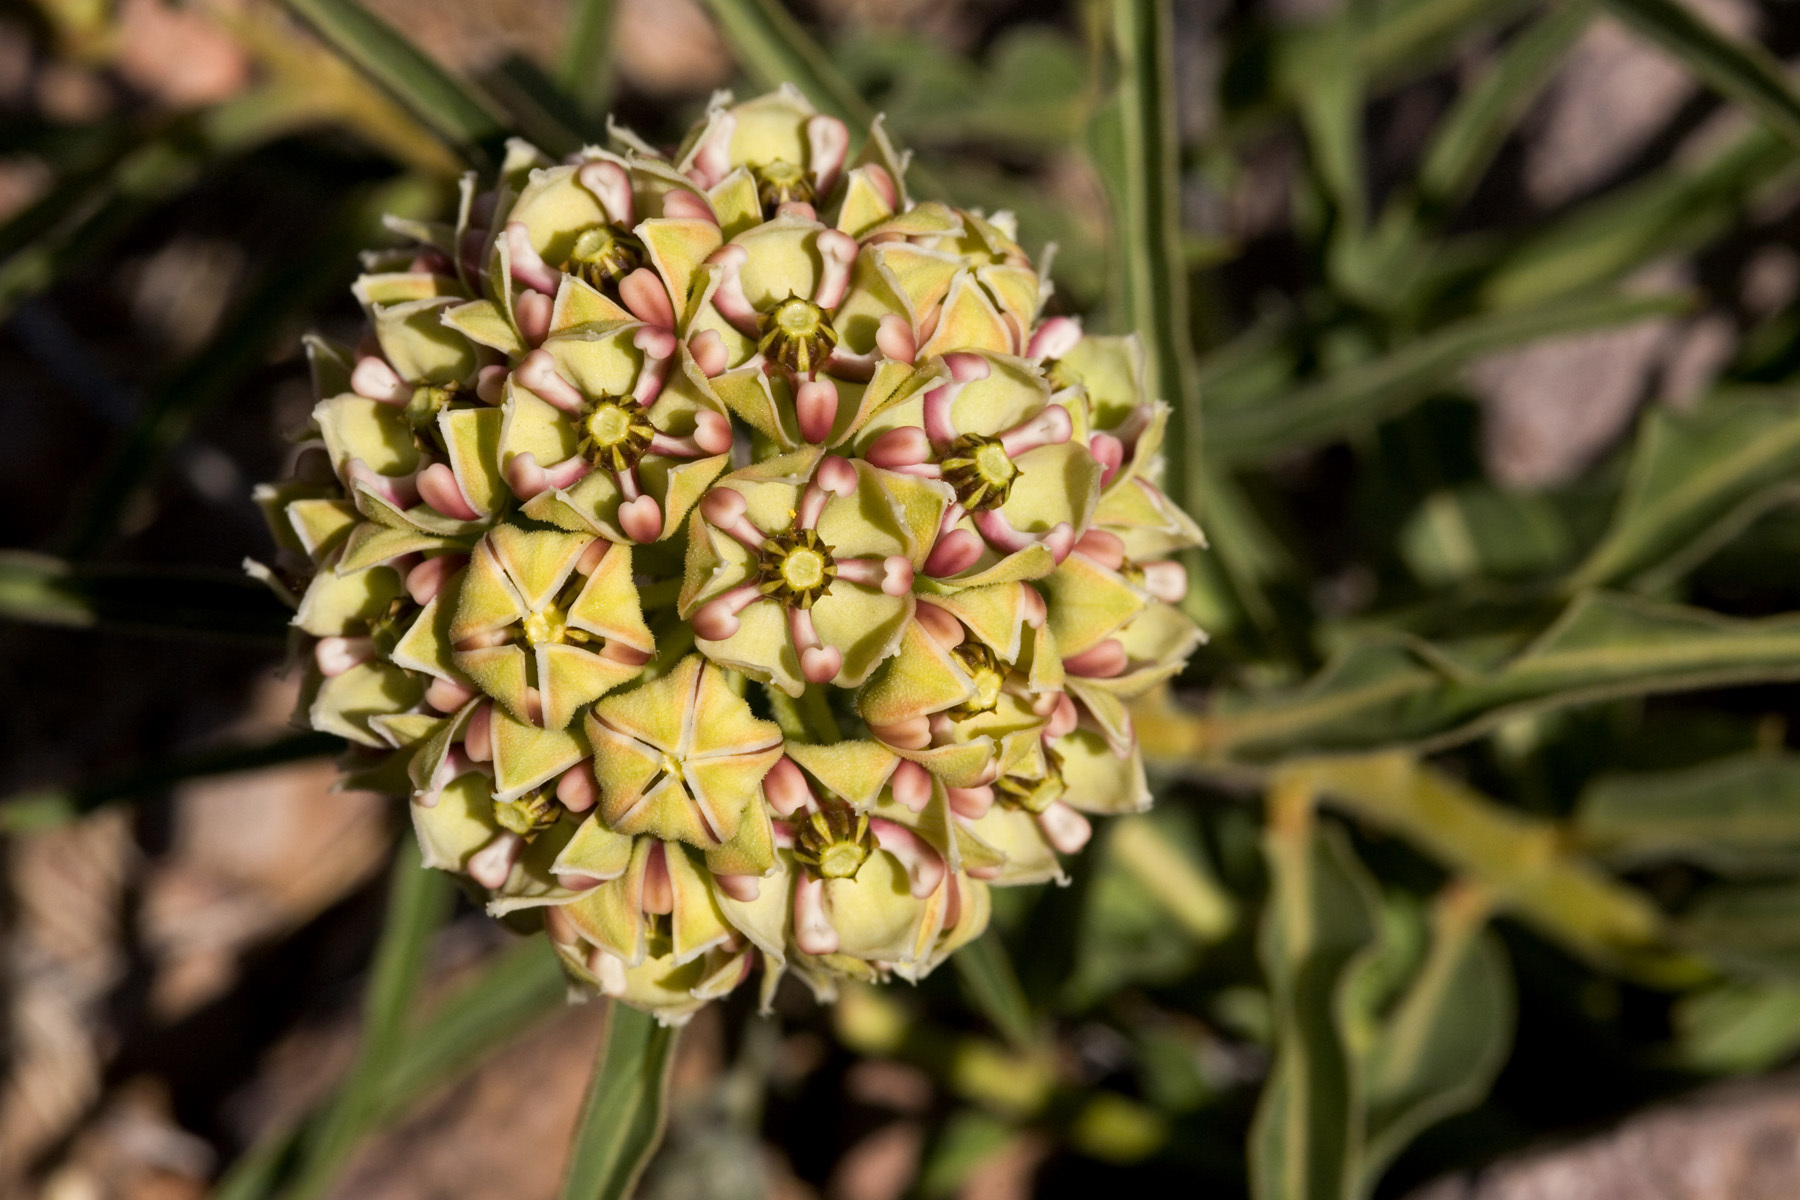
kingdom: Plantae
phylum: Tracheophyta
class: Magnoliopsida
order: Gentianales
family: Apocynaceae
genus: Asclepias
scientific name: Asclepias asperula
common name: Antelope horns
